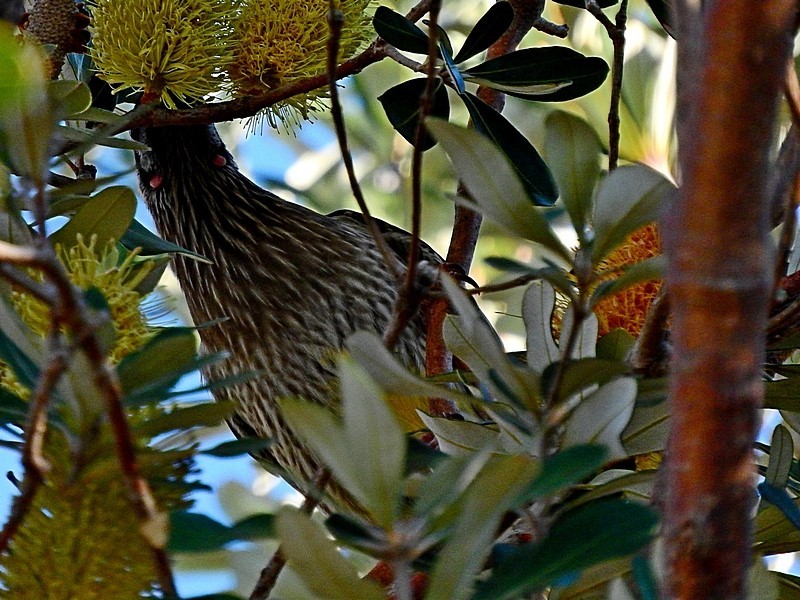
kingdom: Animalia
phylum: Chordata
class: Aves
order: Passeriformes
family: Meliphagidae
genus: Anthochaera
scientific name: Anthochaera carunculata
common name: Red wattlebird
